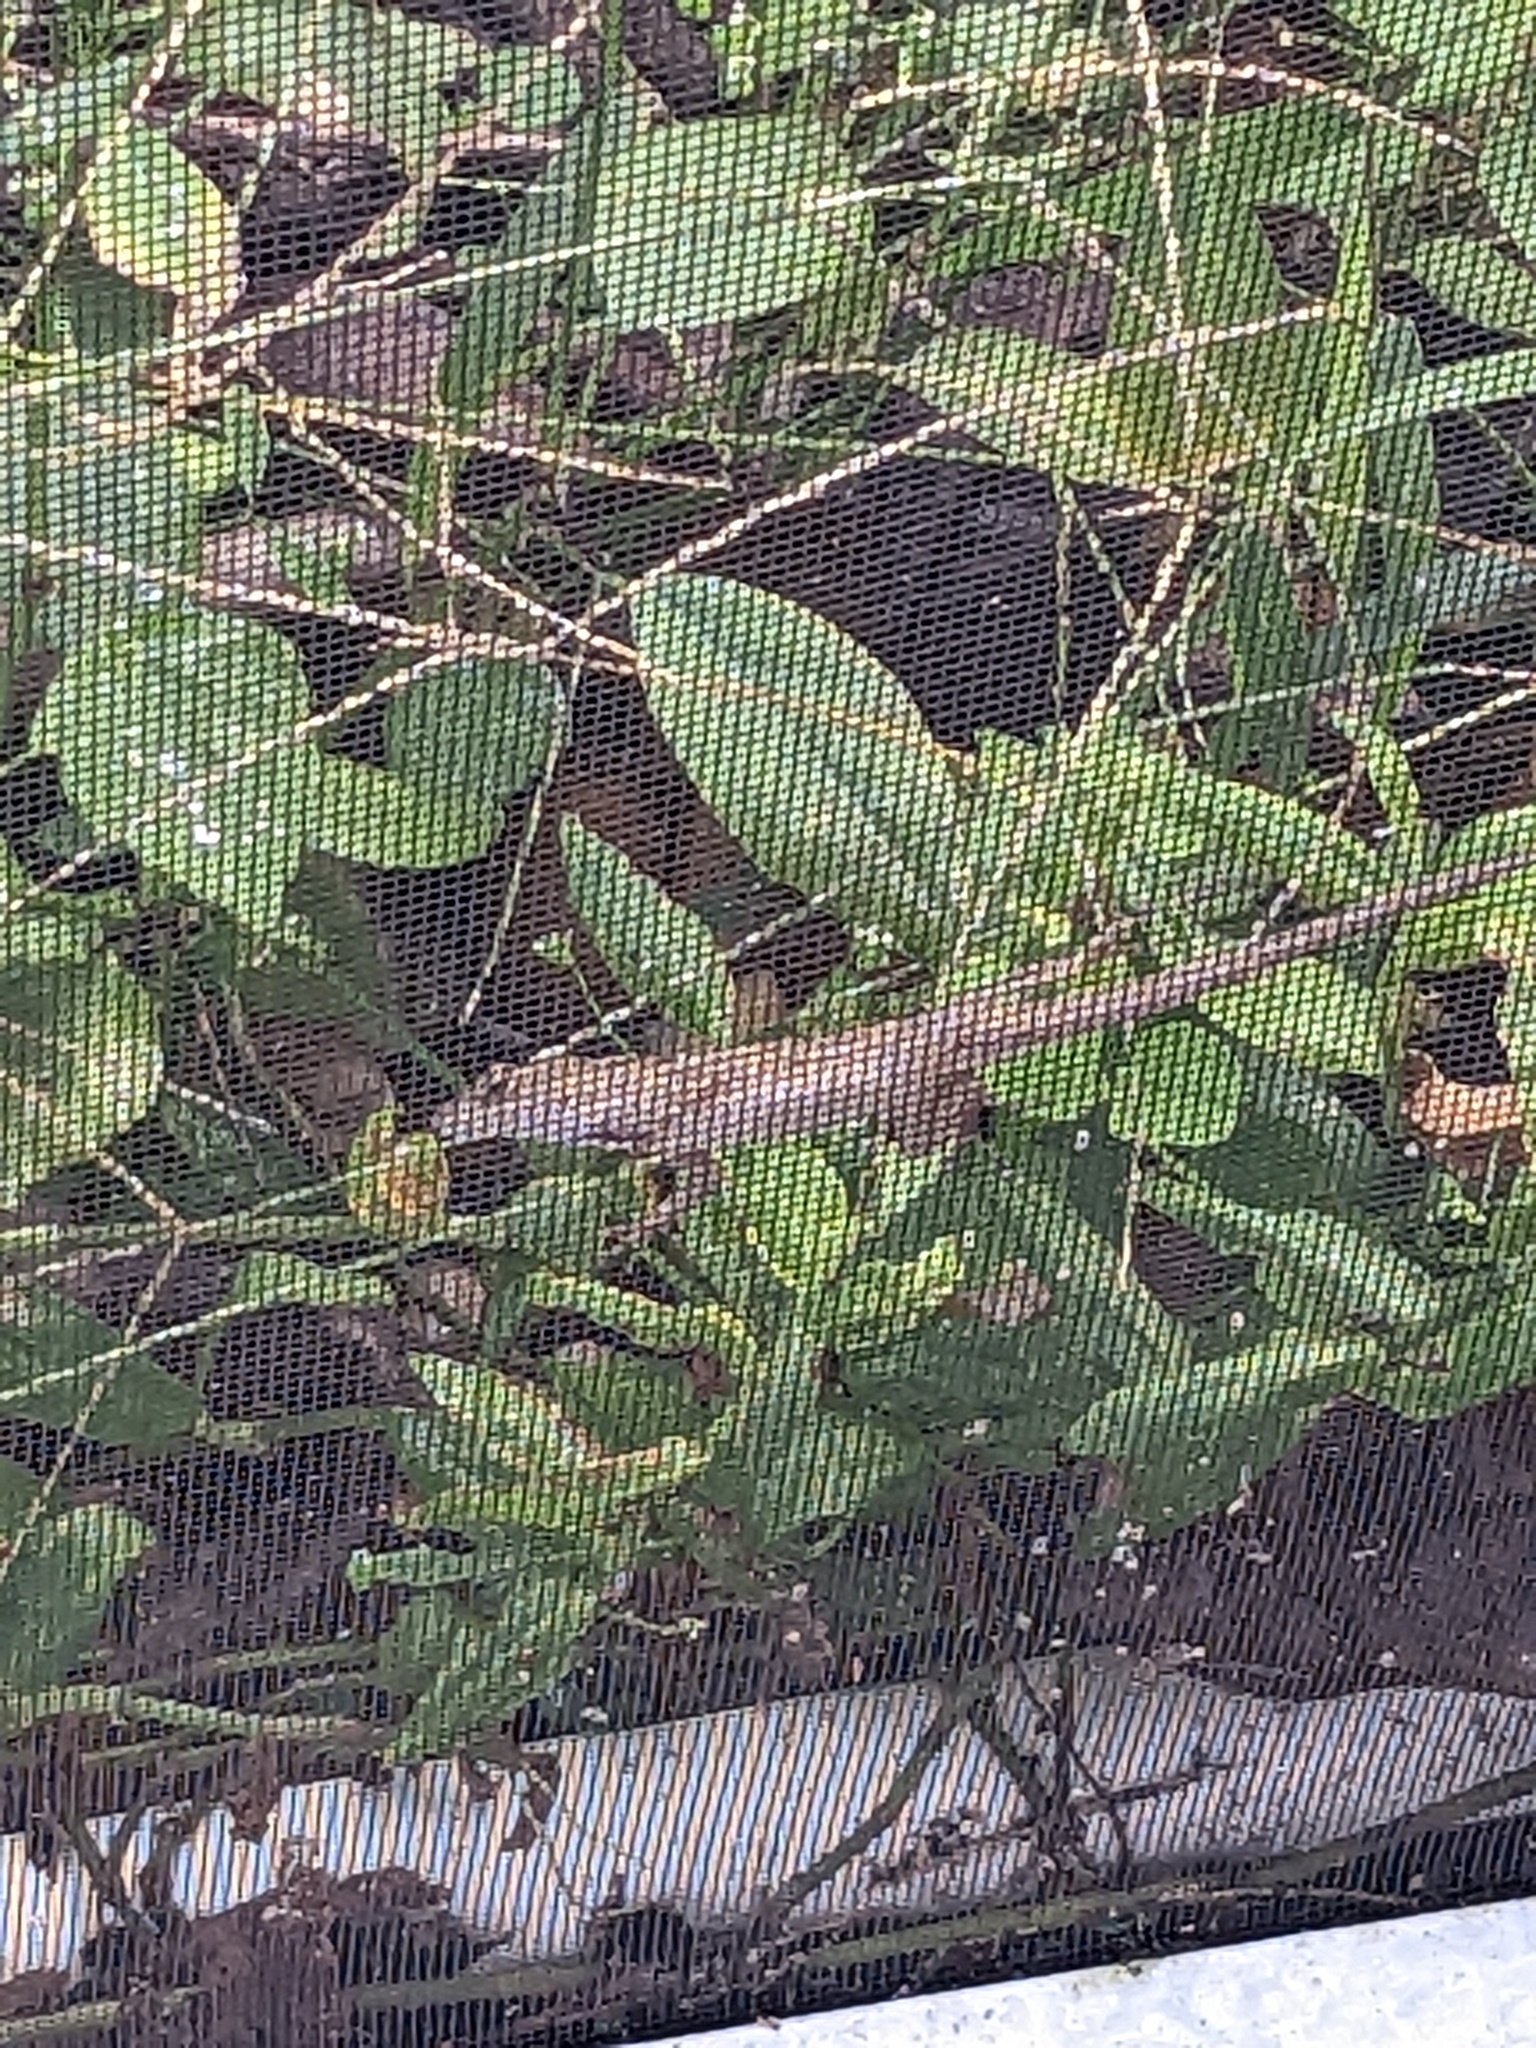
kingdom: Animalia
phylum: Chordata
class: Squamata
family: Dactyloidae
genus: Anolis
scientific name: Anolis sagrei
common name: Brown anole
